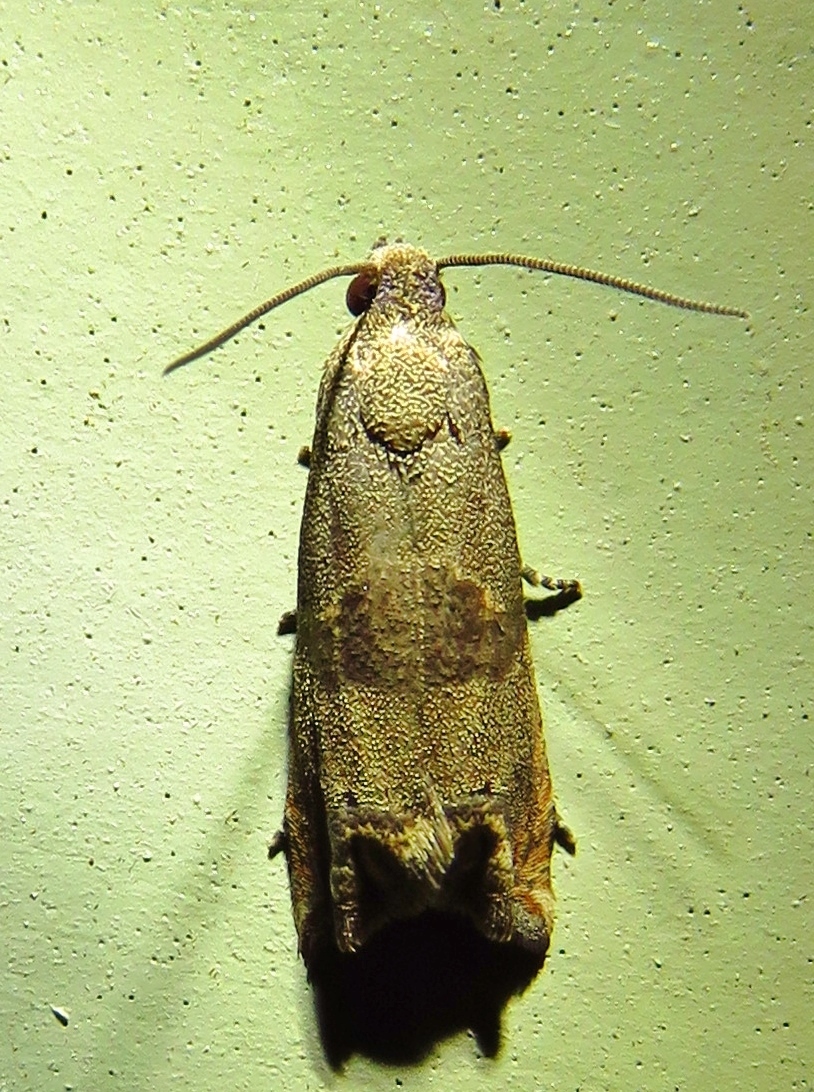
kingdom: Animalia
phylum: Arthropoda
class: Insecta
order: Lepidoptera
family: Tortricidae
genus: Epiblema
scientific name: Epiblema strenuana
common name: Ragweed borer moth
